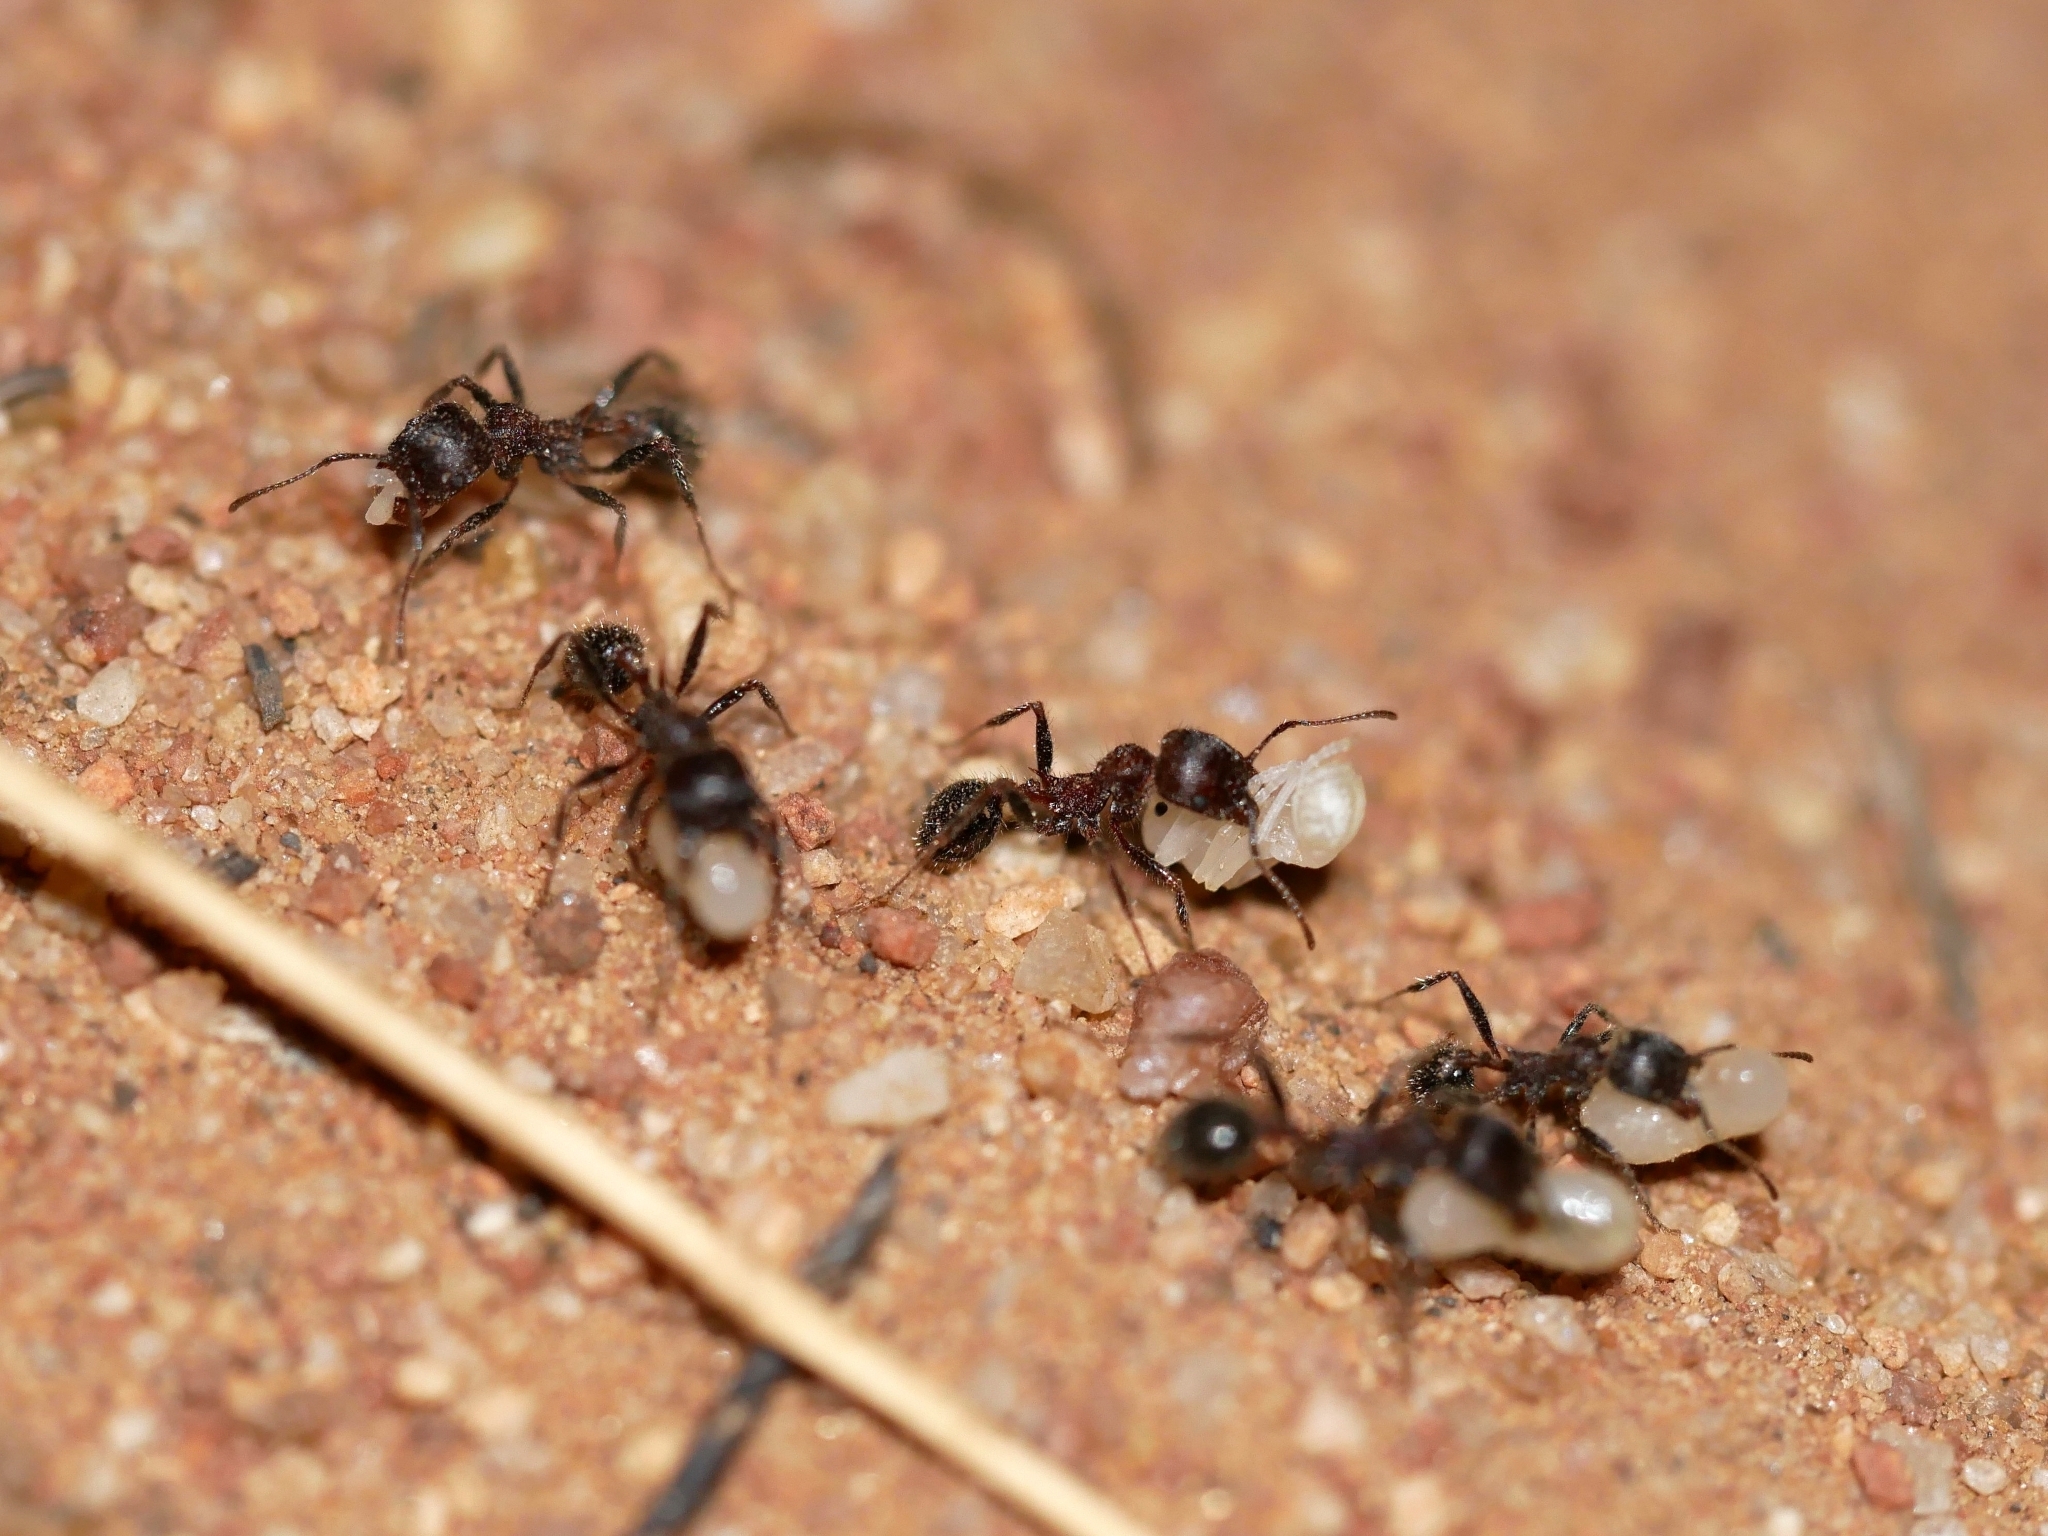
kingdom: Animalia
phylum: Arthropoda
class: Insecta
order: Hymenoptera
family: Formicidae
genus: Veromessor
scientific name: Veromessor andrei
